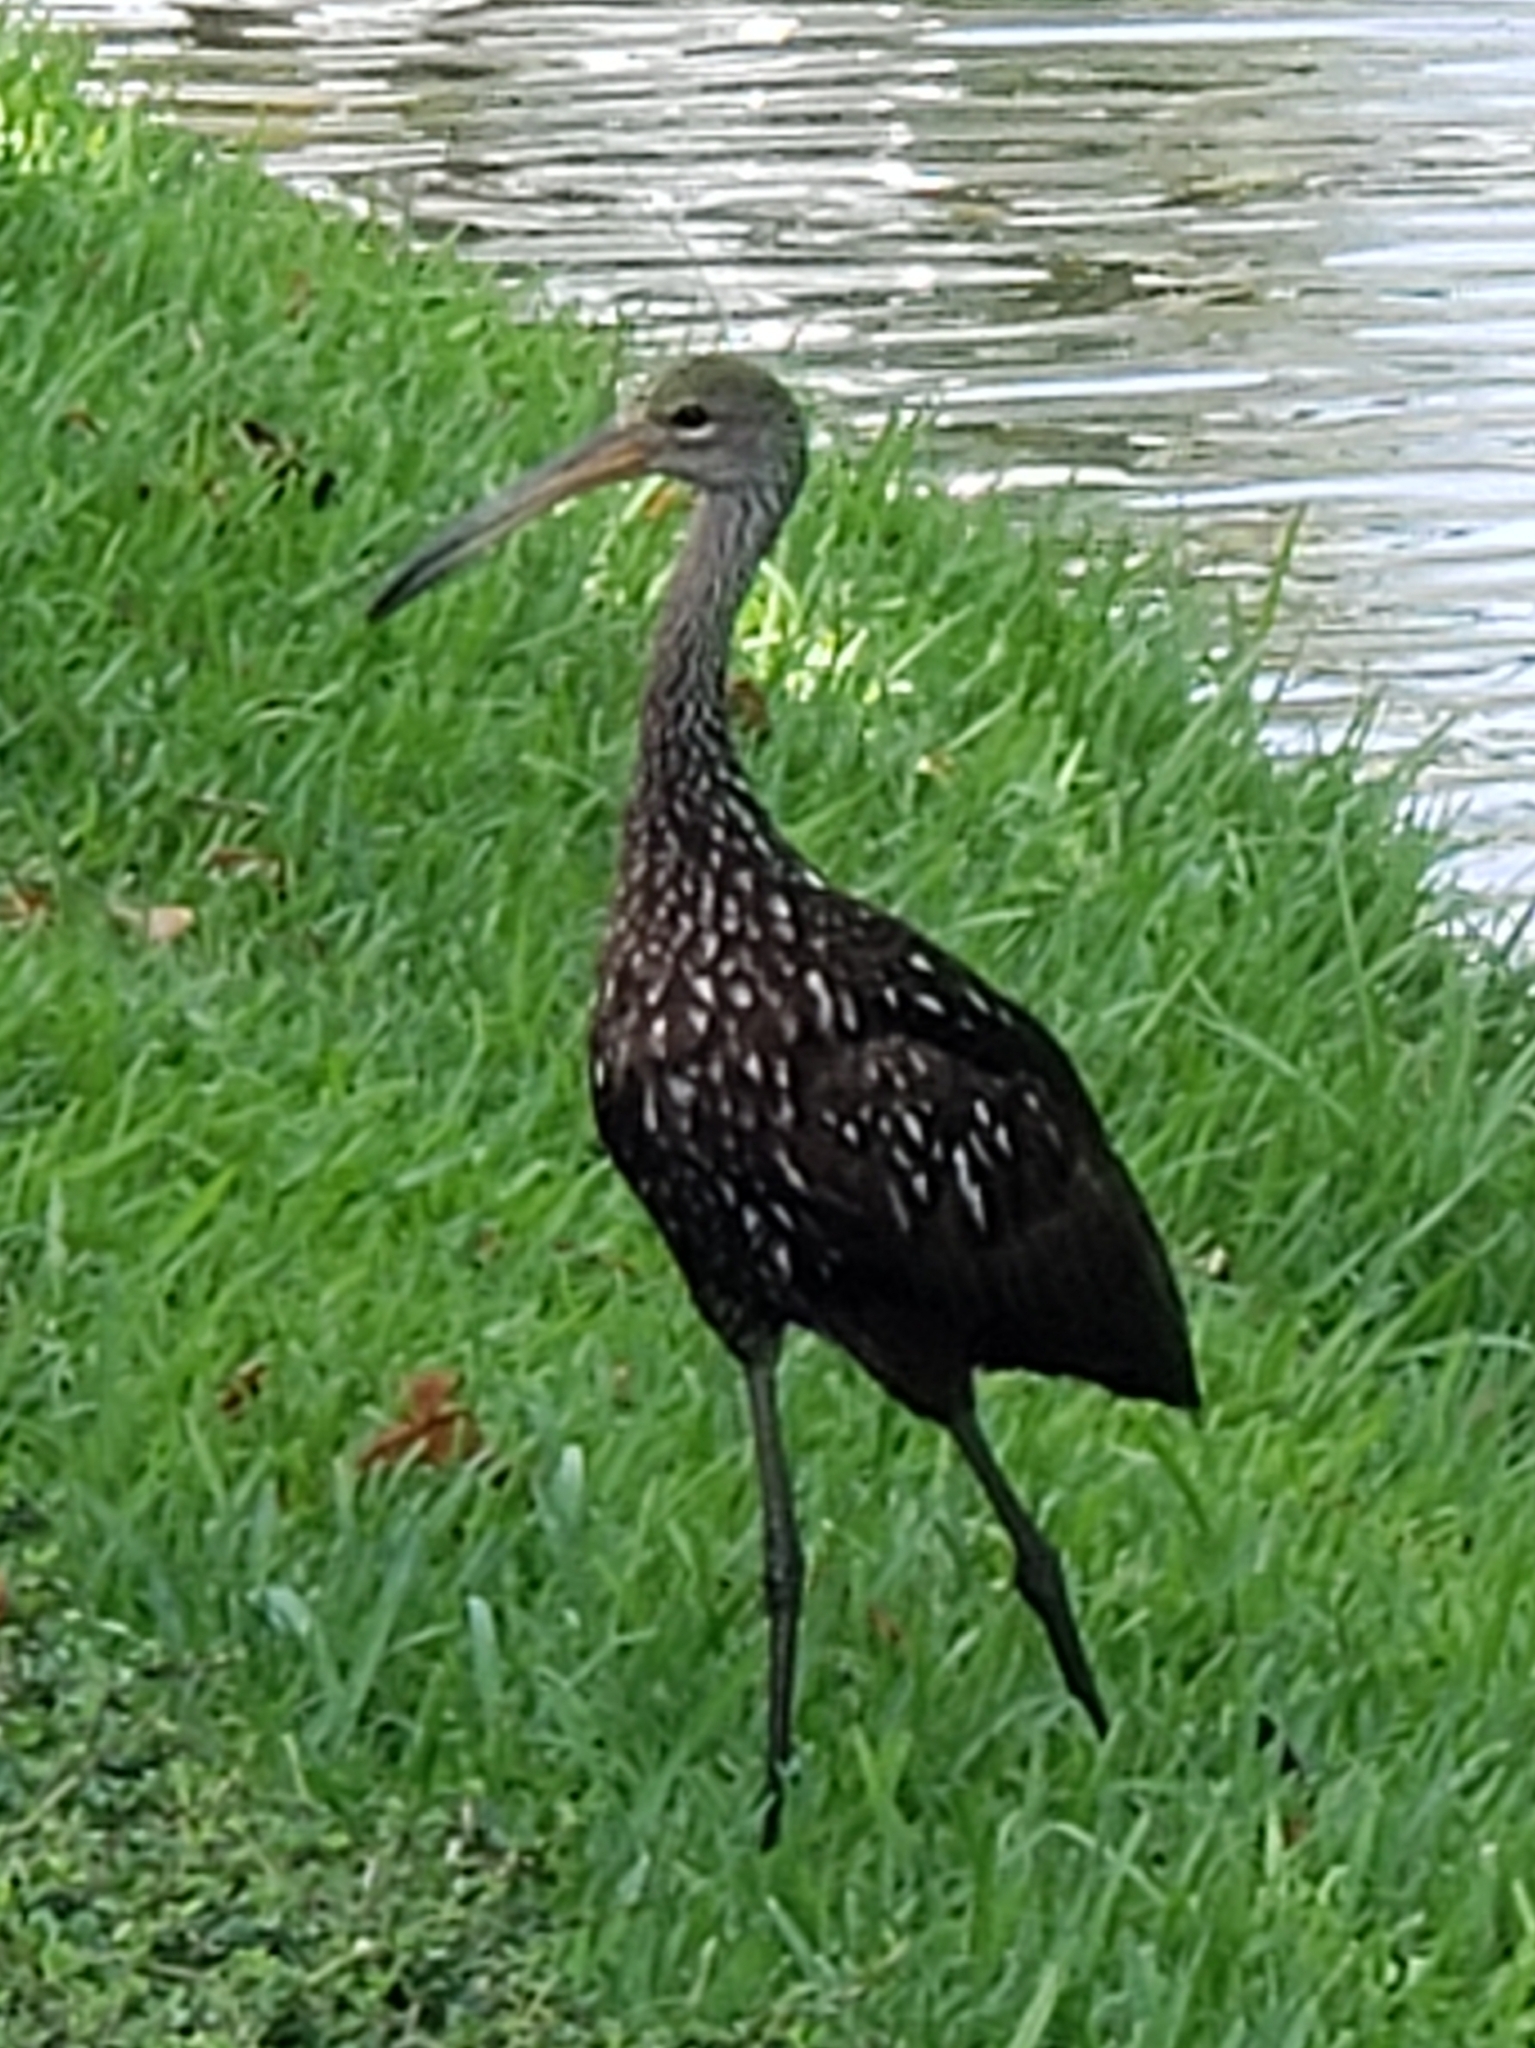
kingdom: Animalia
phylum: Chordata
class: Aves
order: Gruiformes
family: Aramidae
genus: Aramus
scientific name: Aramus guarauna
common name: Limpkin
